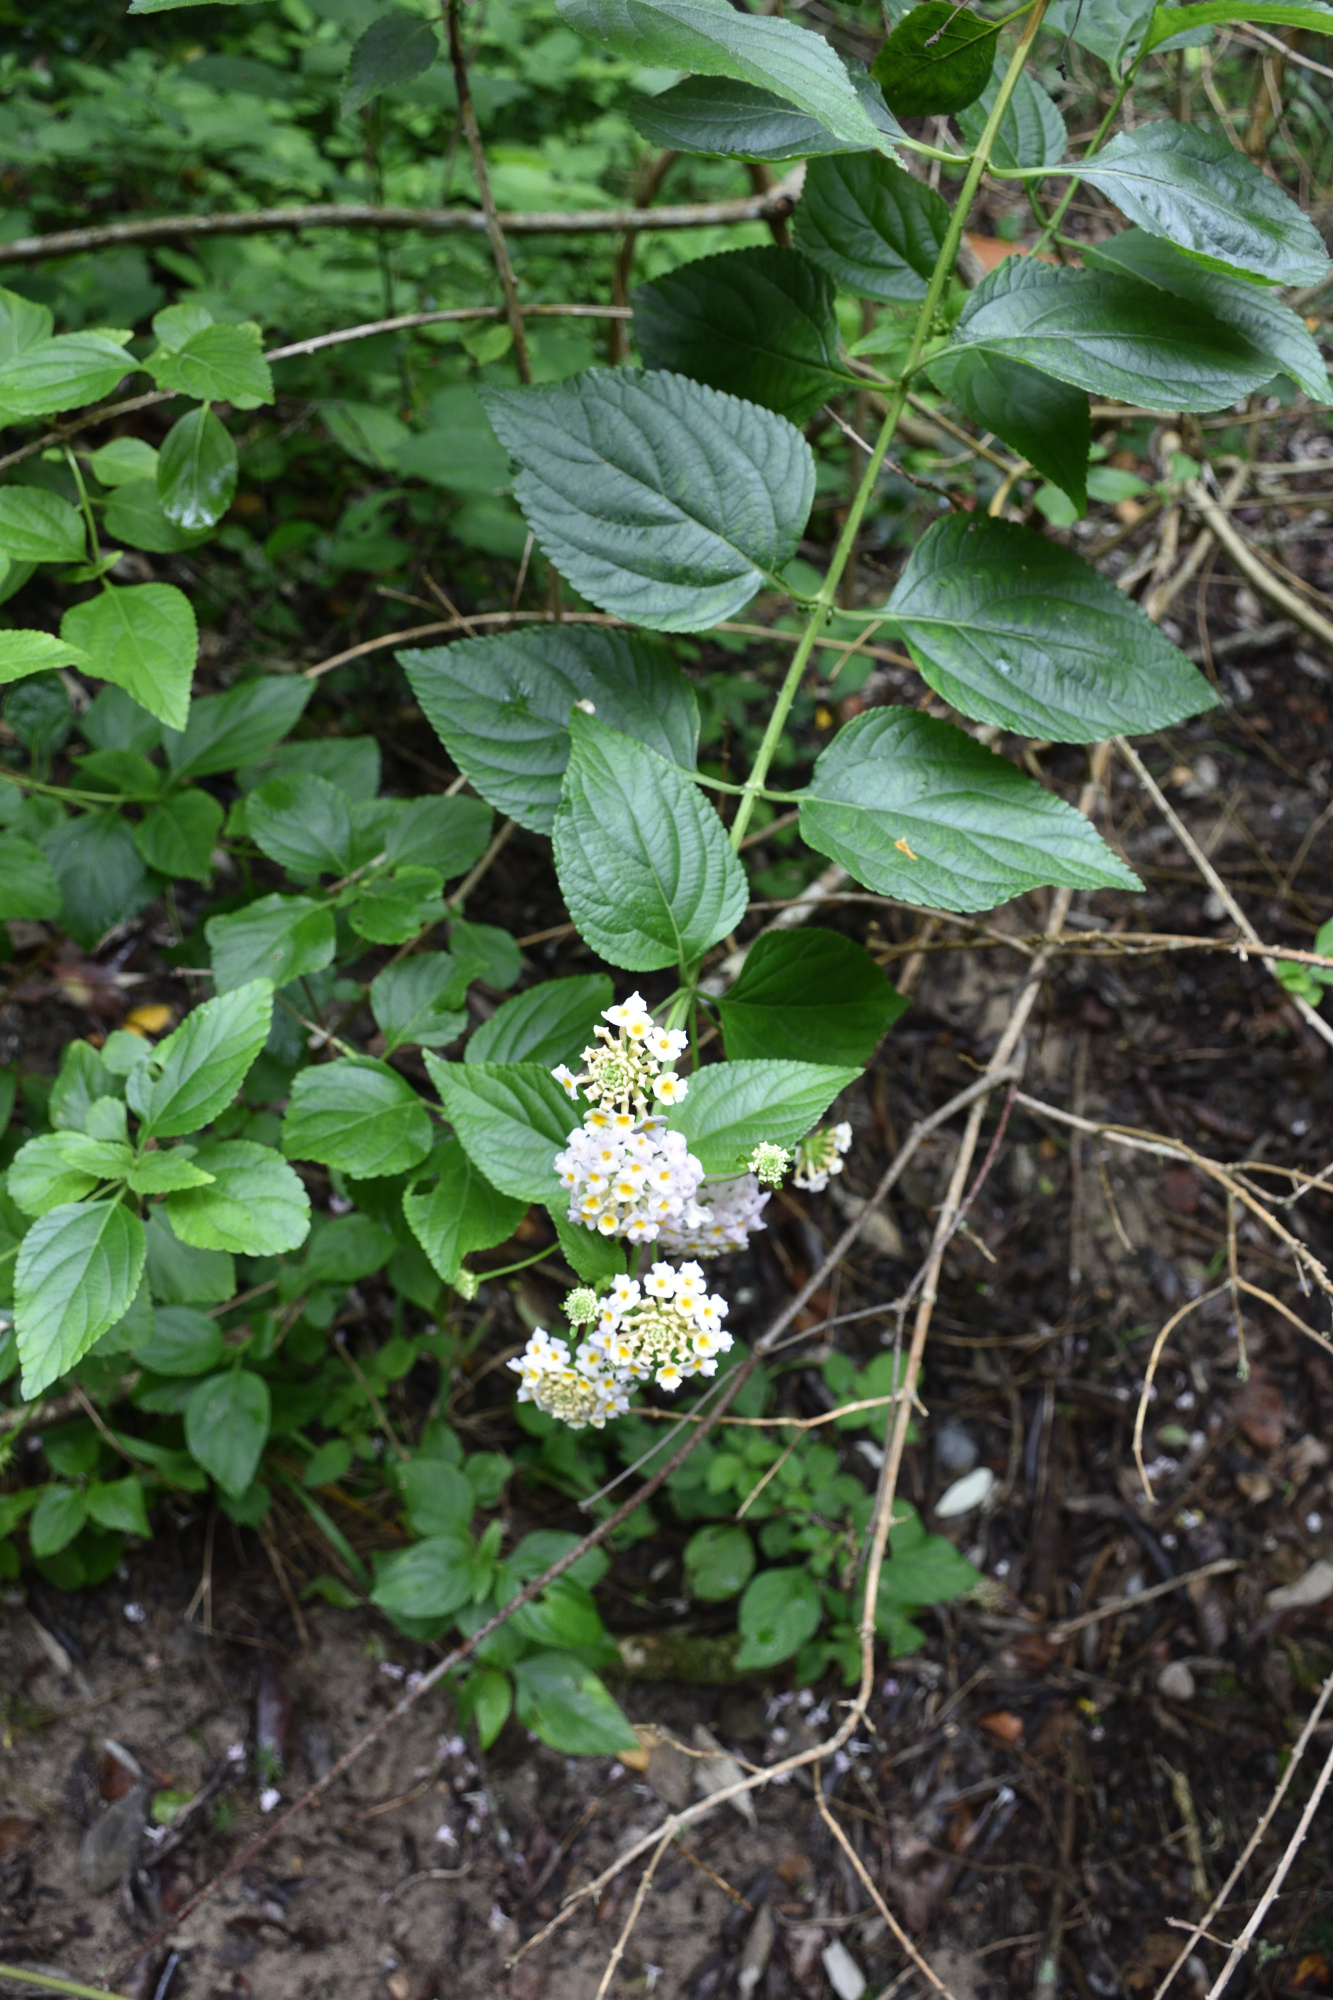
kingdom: Plantae
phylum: Tracheophyta
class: Magnoliopsida
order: Lamiales
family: Verbenaceae
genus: Lantana
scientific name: Lantana camara
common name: Lantana
